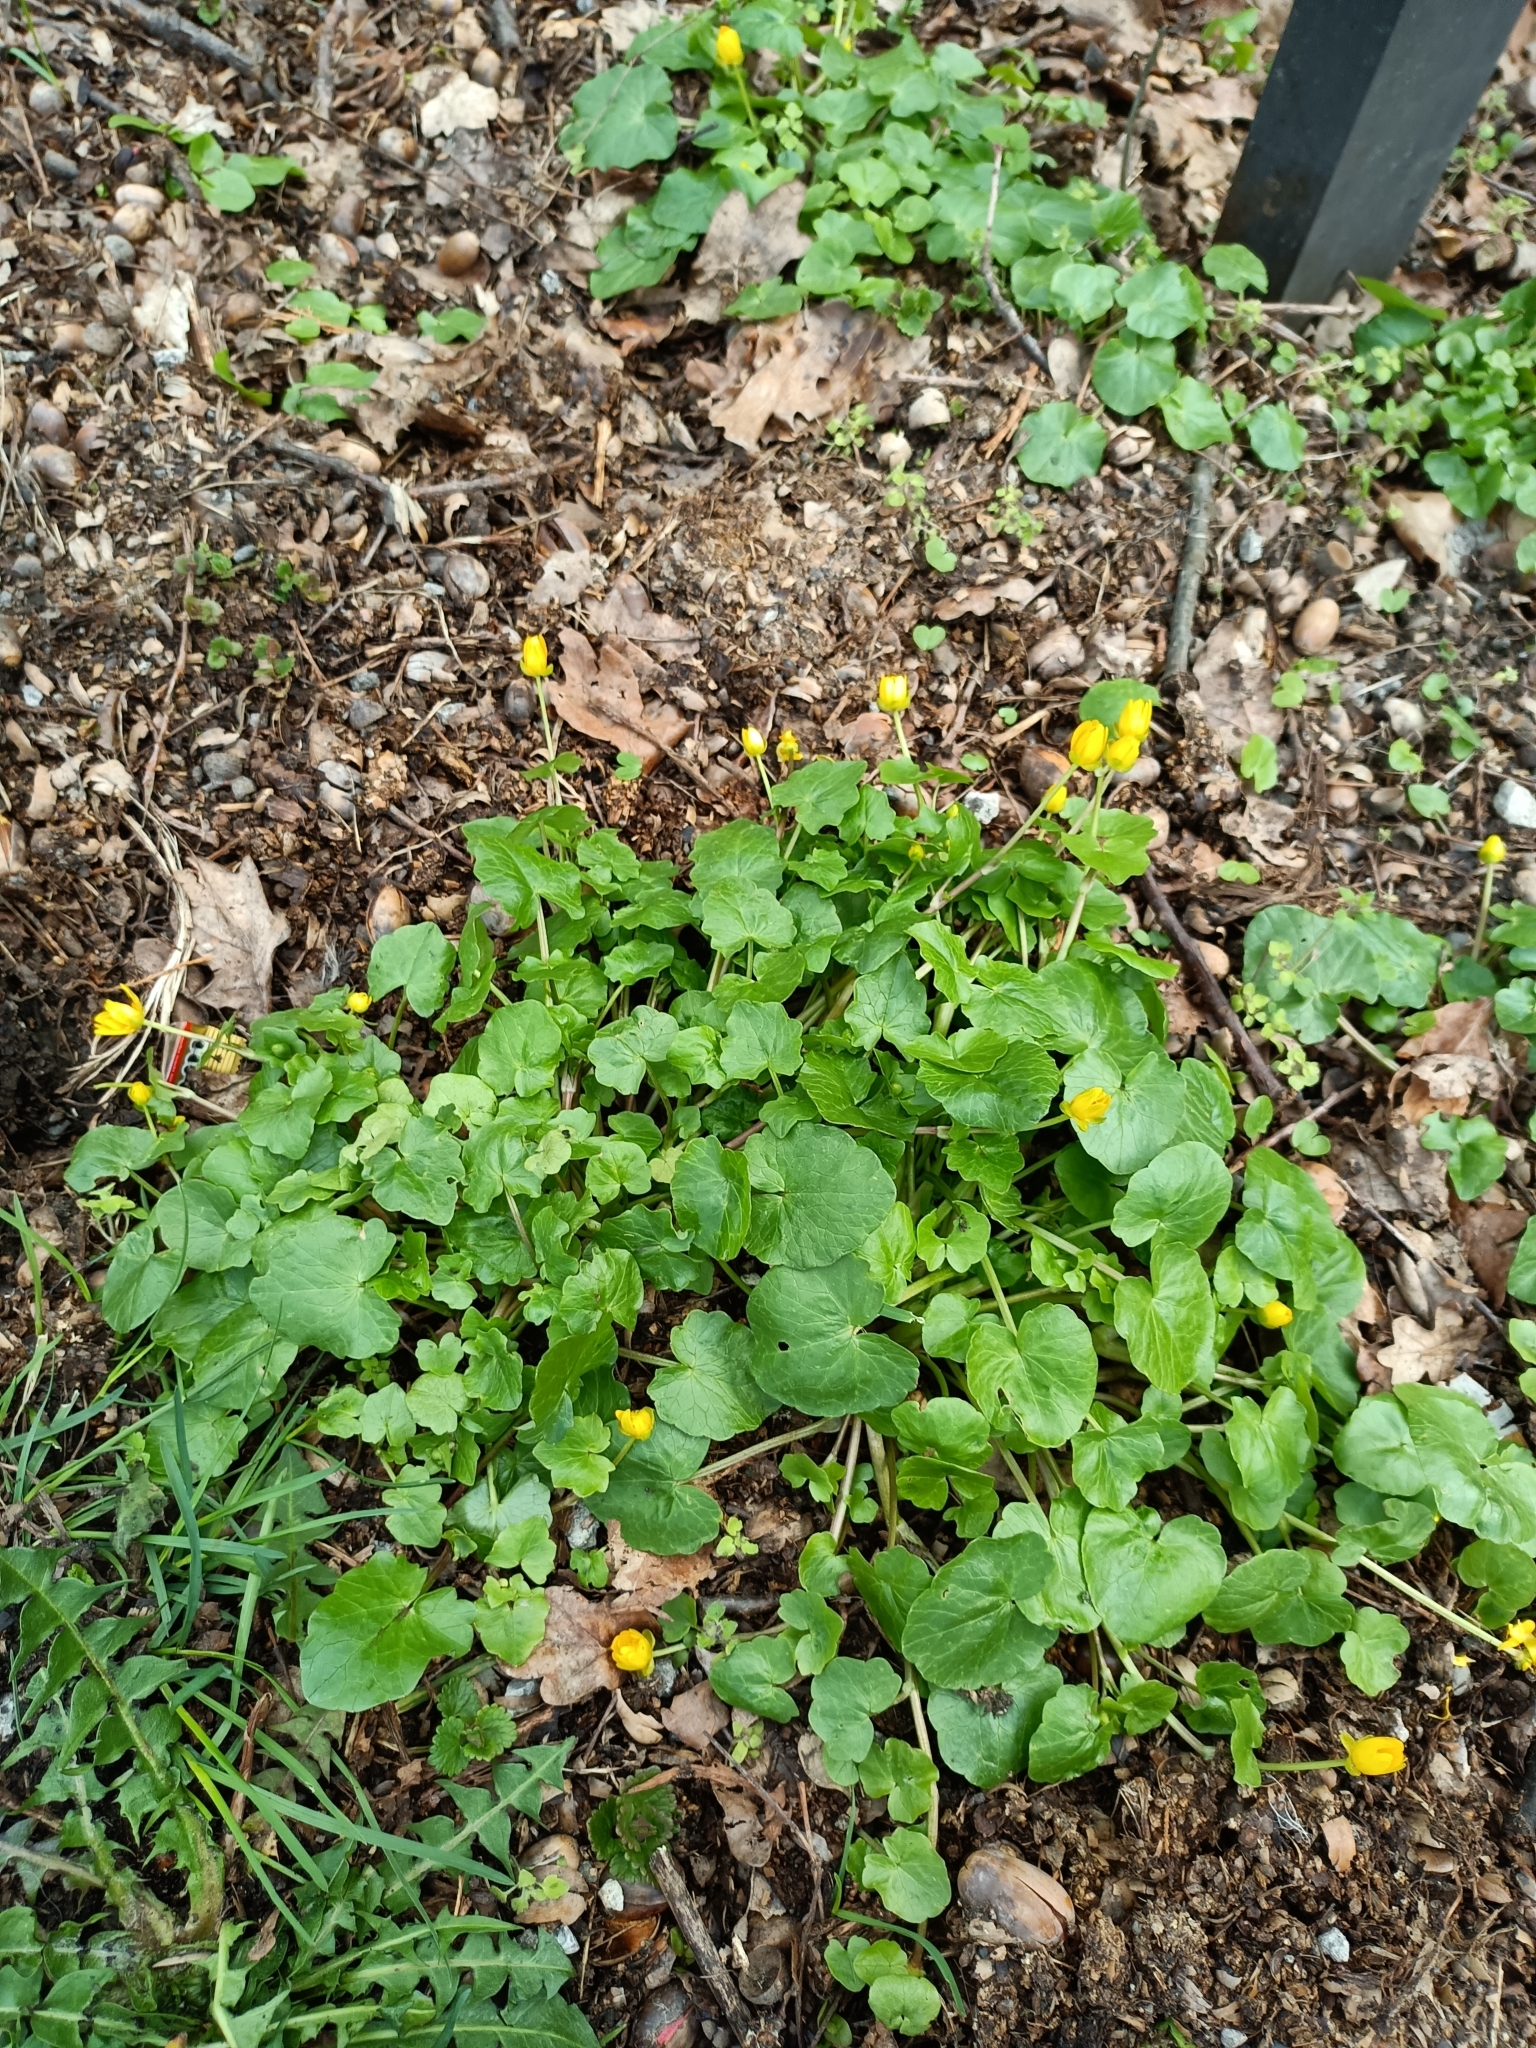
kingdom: Plantae
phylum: Tracheophyta
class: Magnoliopsida
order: Ranunculales
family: Ranunculaceae
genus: Ficaria
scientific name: Ficaria verna
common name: Lesser celandine
